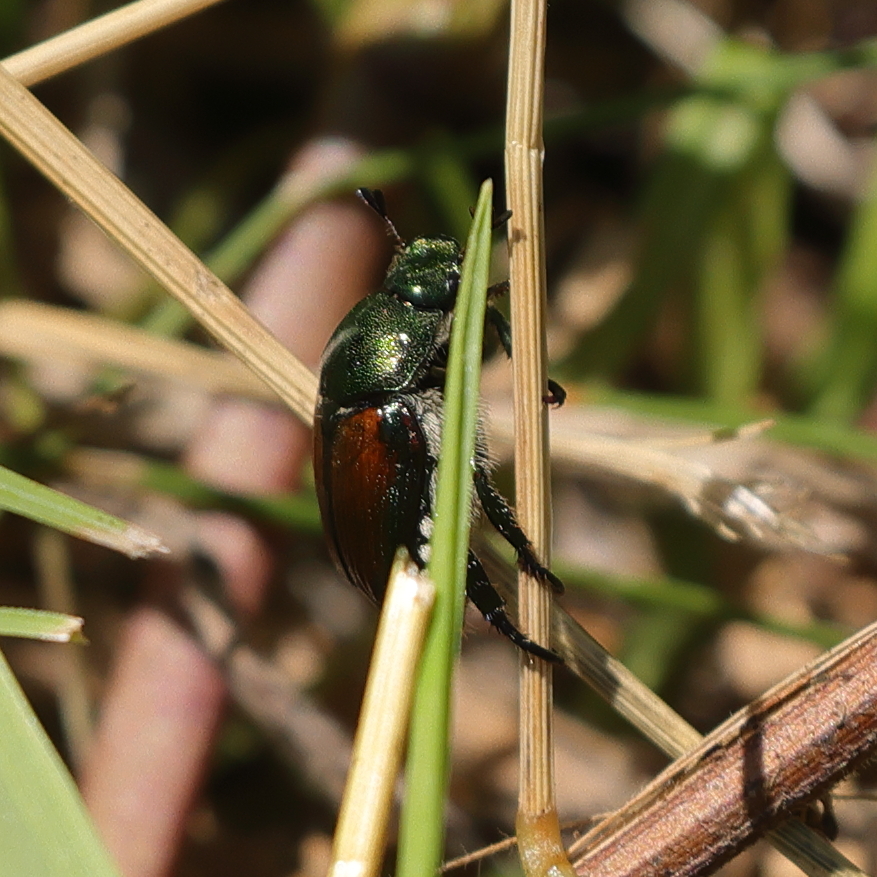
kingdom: Animalia
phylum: Arthropoda
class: Insecta
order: Coleoptera
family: Scarabaeidae
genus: Popillia
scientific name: Popillia japonica
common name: Japanese beetle
